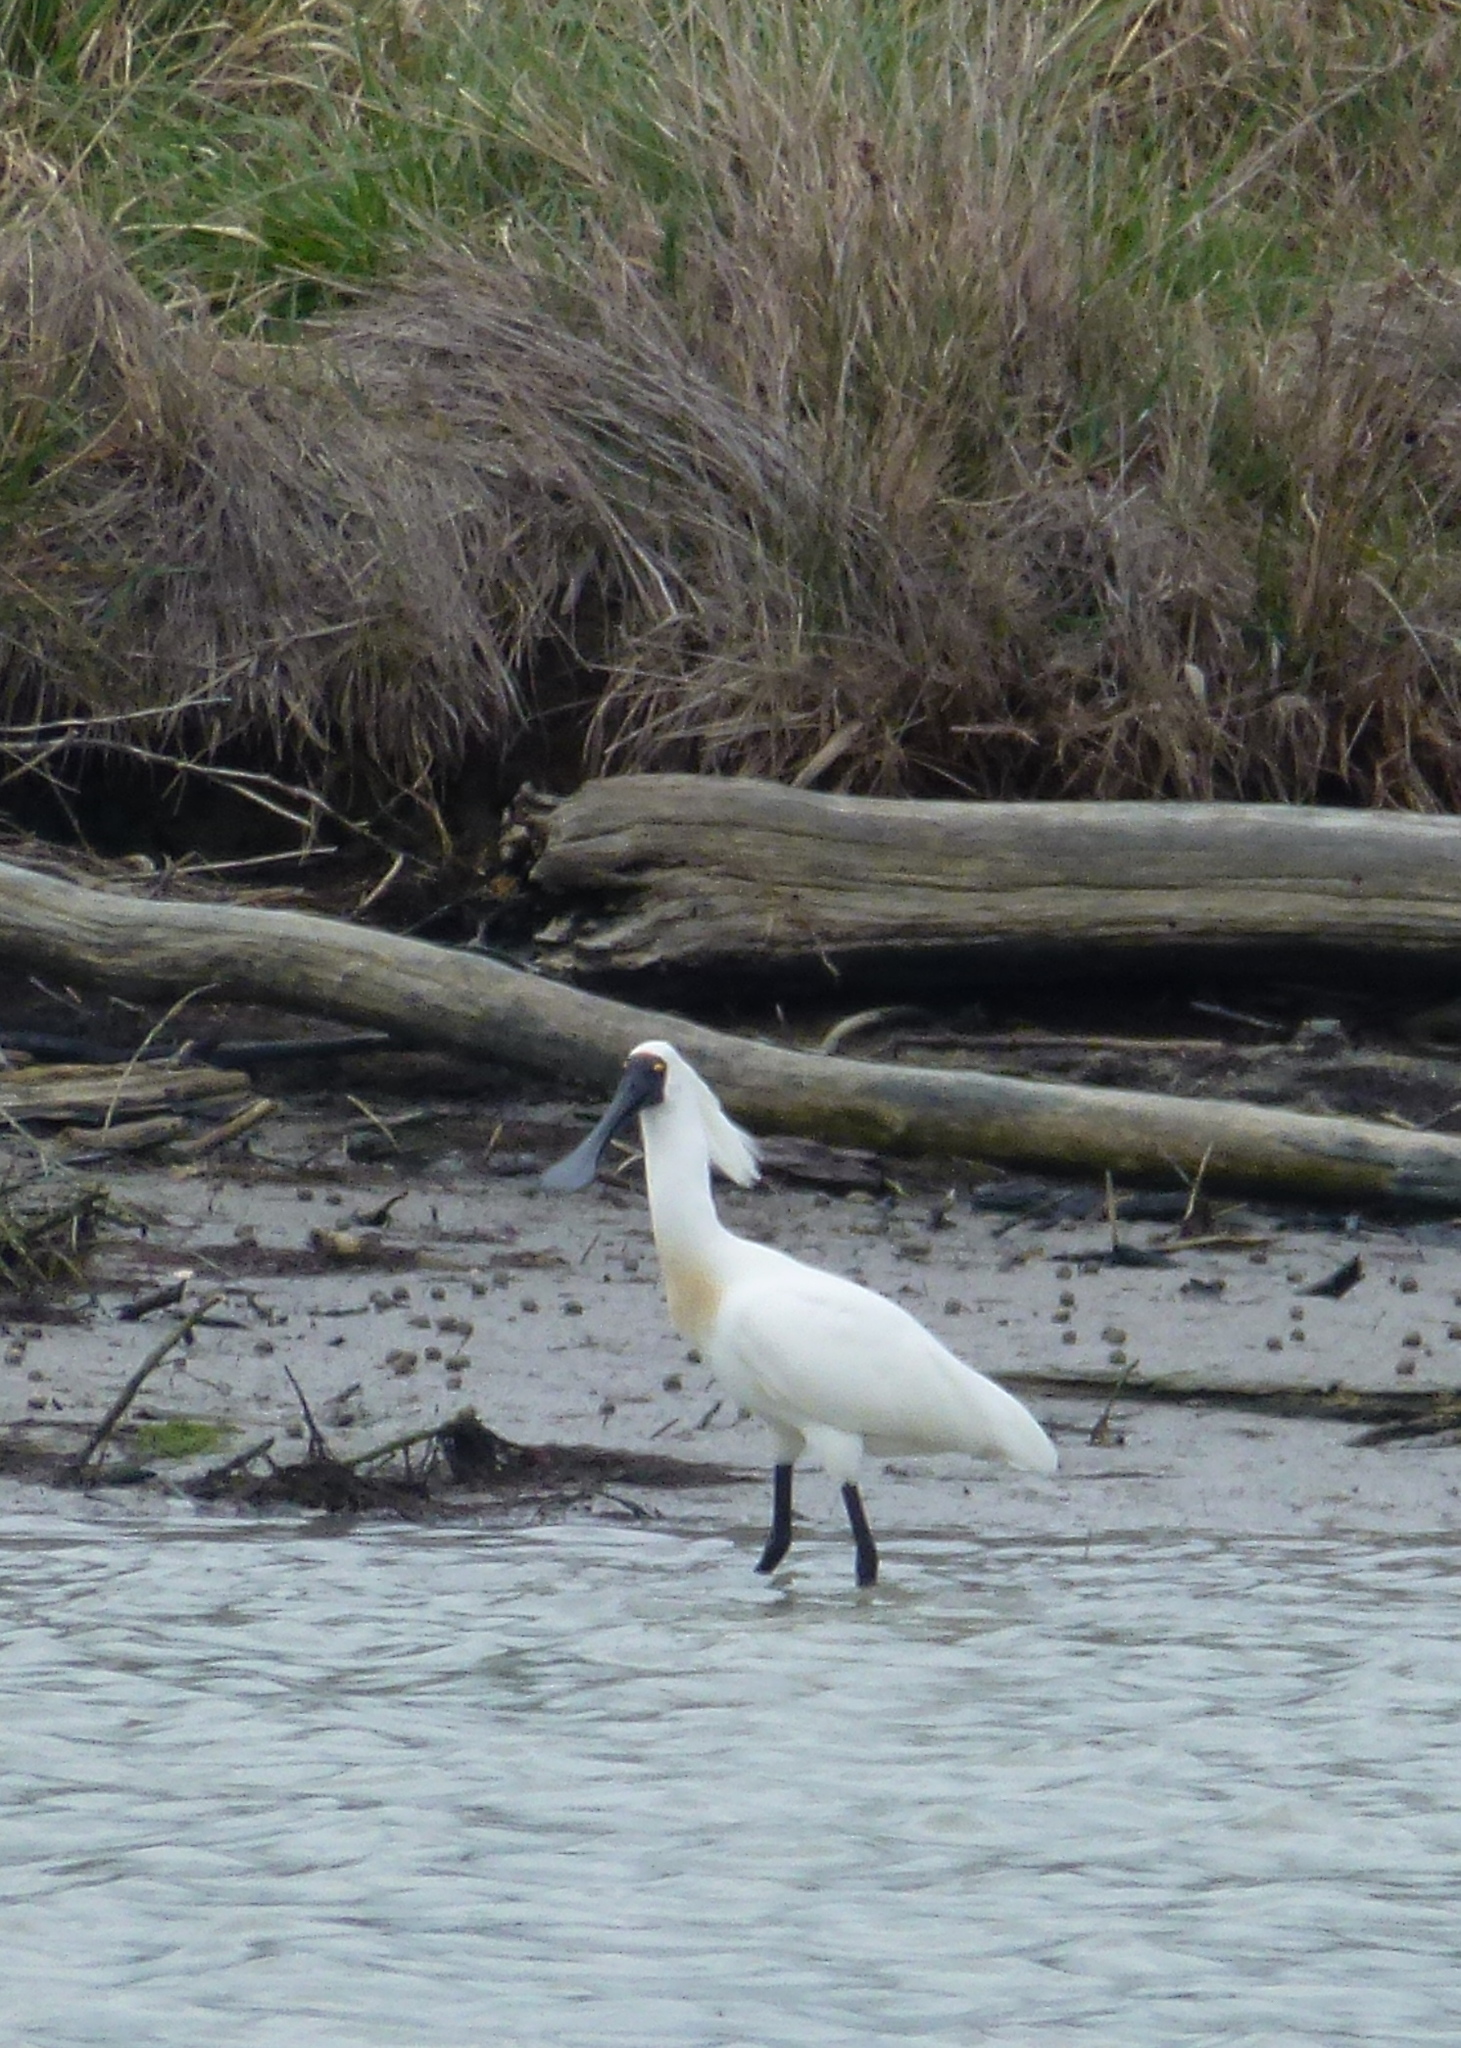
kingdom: Animalia
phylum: Chordata
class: Aves
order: Pelecaniformes
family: Threskiornithidae
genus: Platalea
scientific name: Platalea regia
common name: Royal spoonbill
